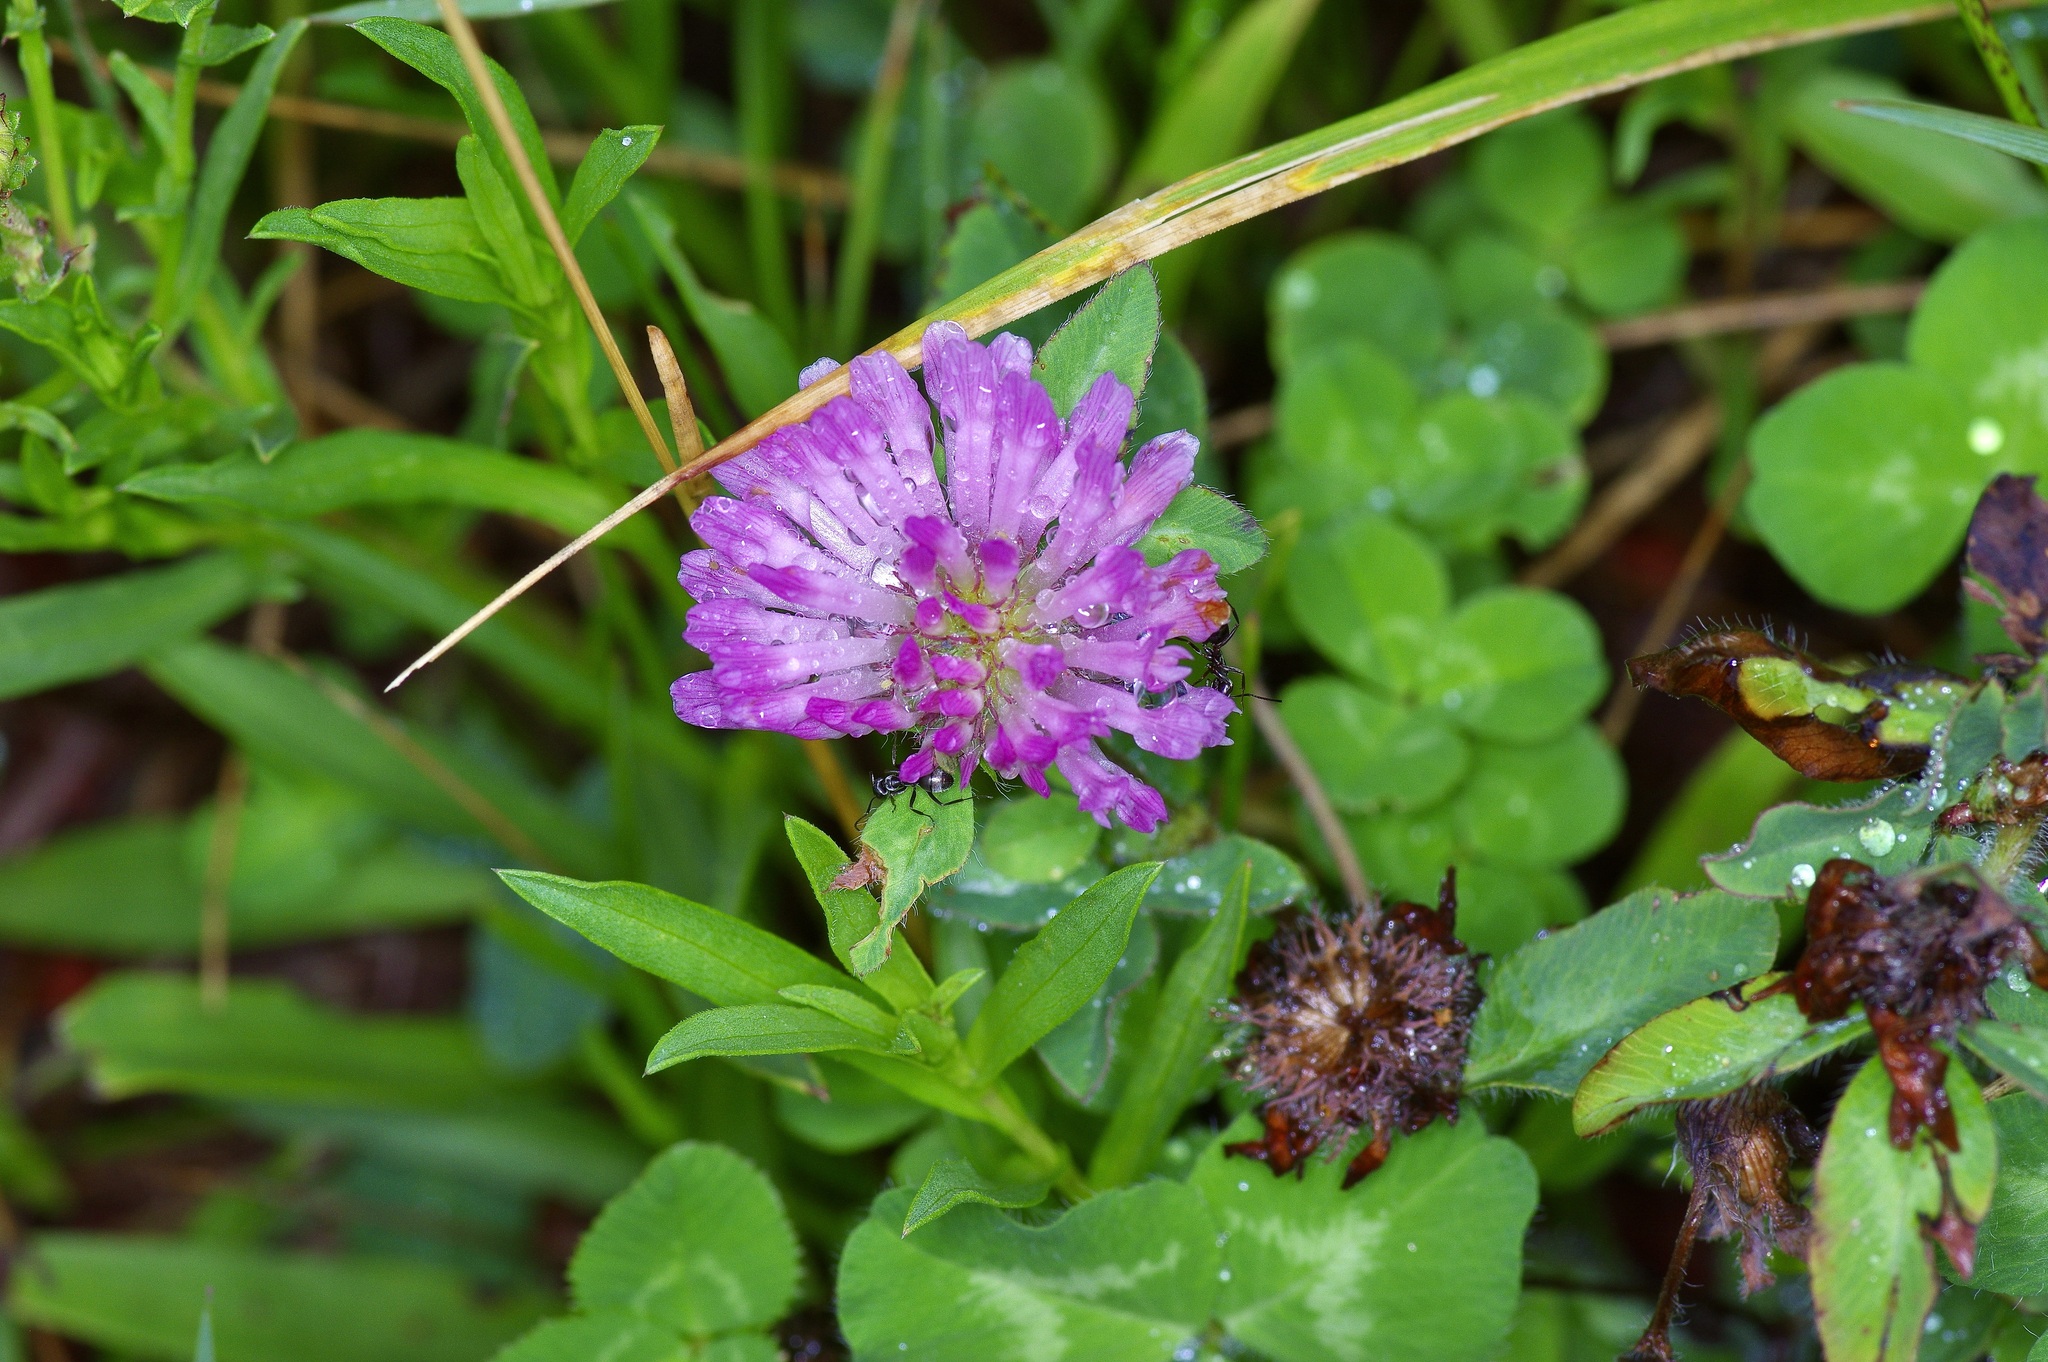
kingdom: Plantae
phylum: Tracheophyta
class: Magnoliopsida
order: Fabales
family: Fabaceae
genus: Trifolium
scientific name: Trifolium pratense
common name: Red clover
